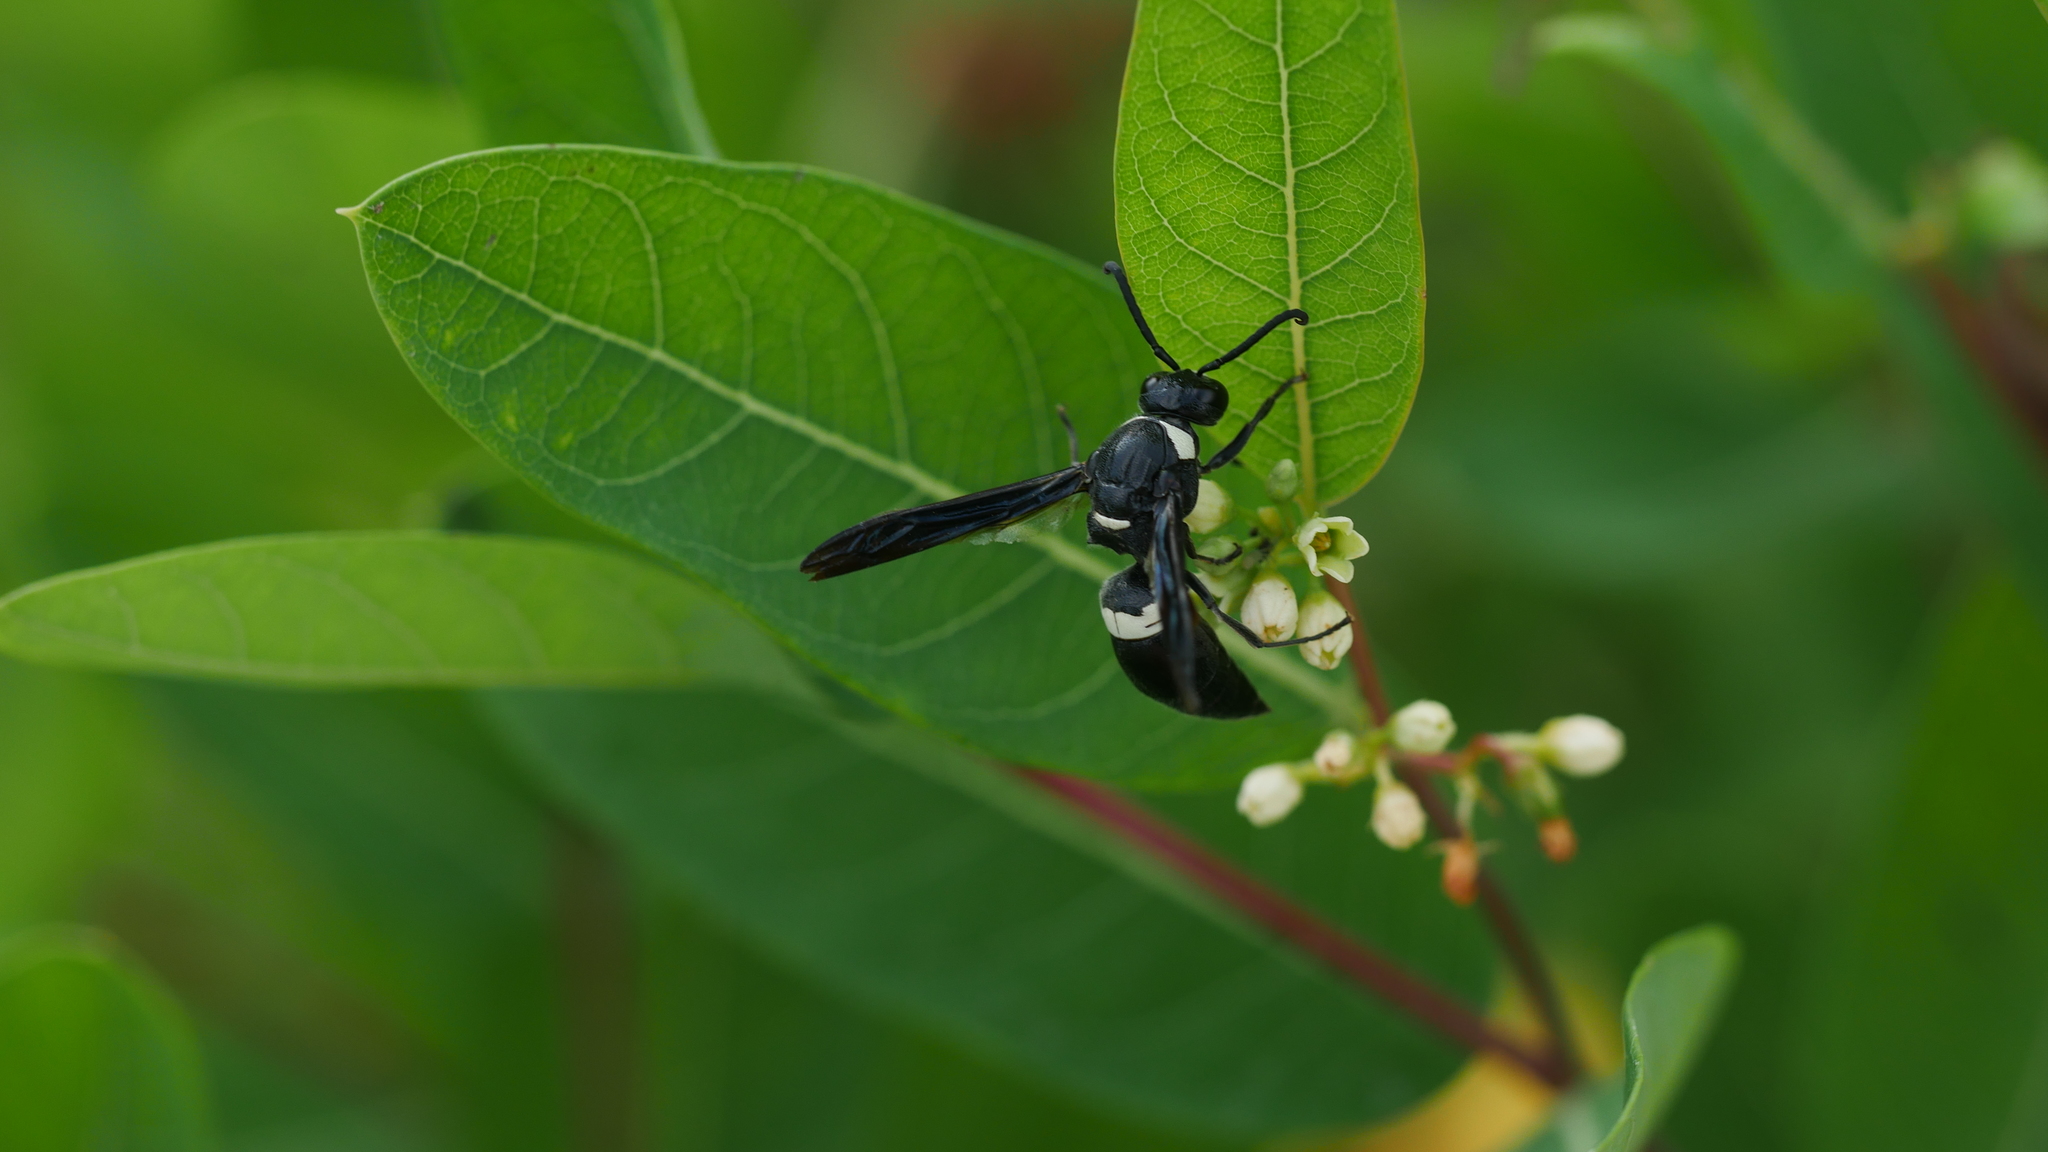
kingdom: Animalia
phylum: Arthropoda
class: Insecta
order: Hymenoptera
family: Eumenidae
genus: Monobia
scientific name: Monobia quadridens
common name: Four-toothed mason wasp
